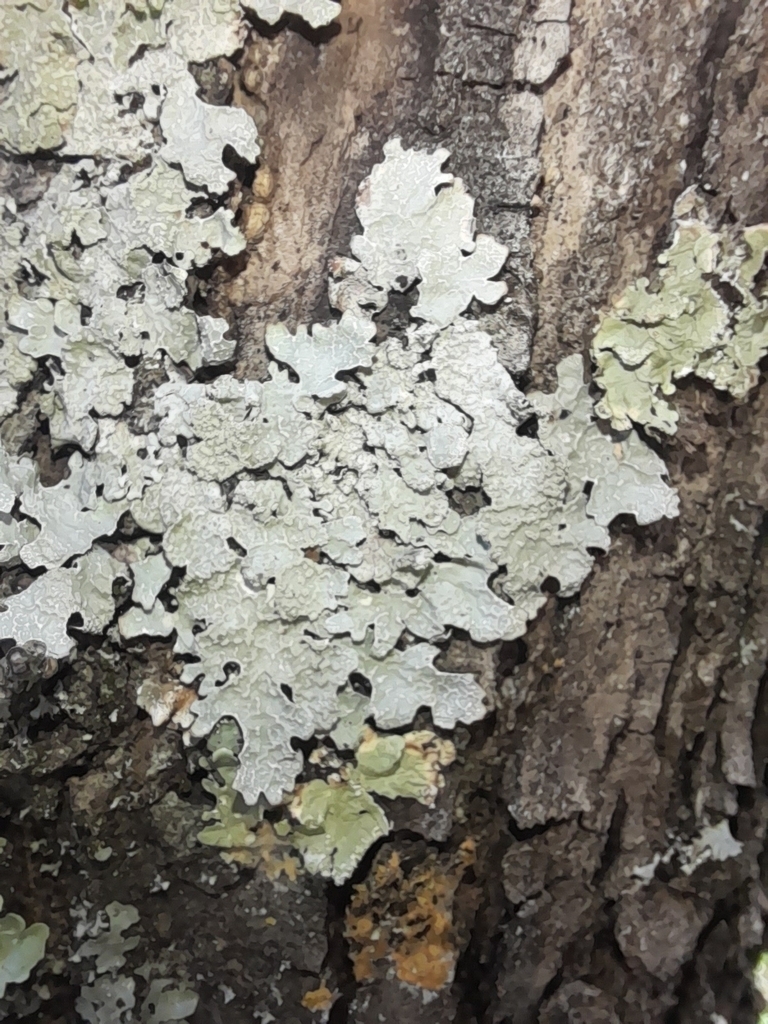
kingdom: Fungi
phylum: Ascomycota
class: Lecanoromycetes
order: Lecanorales
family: Parmeliaceae
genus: Parmelia
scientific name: Parmelia sulcata
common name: Netted shield lichen
